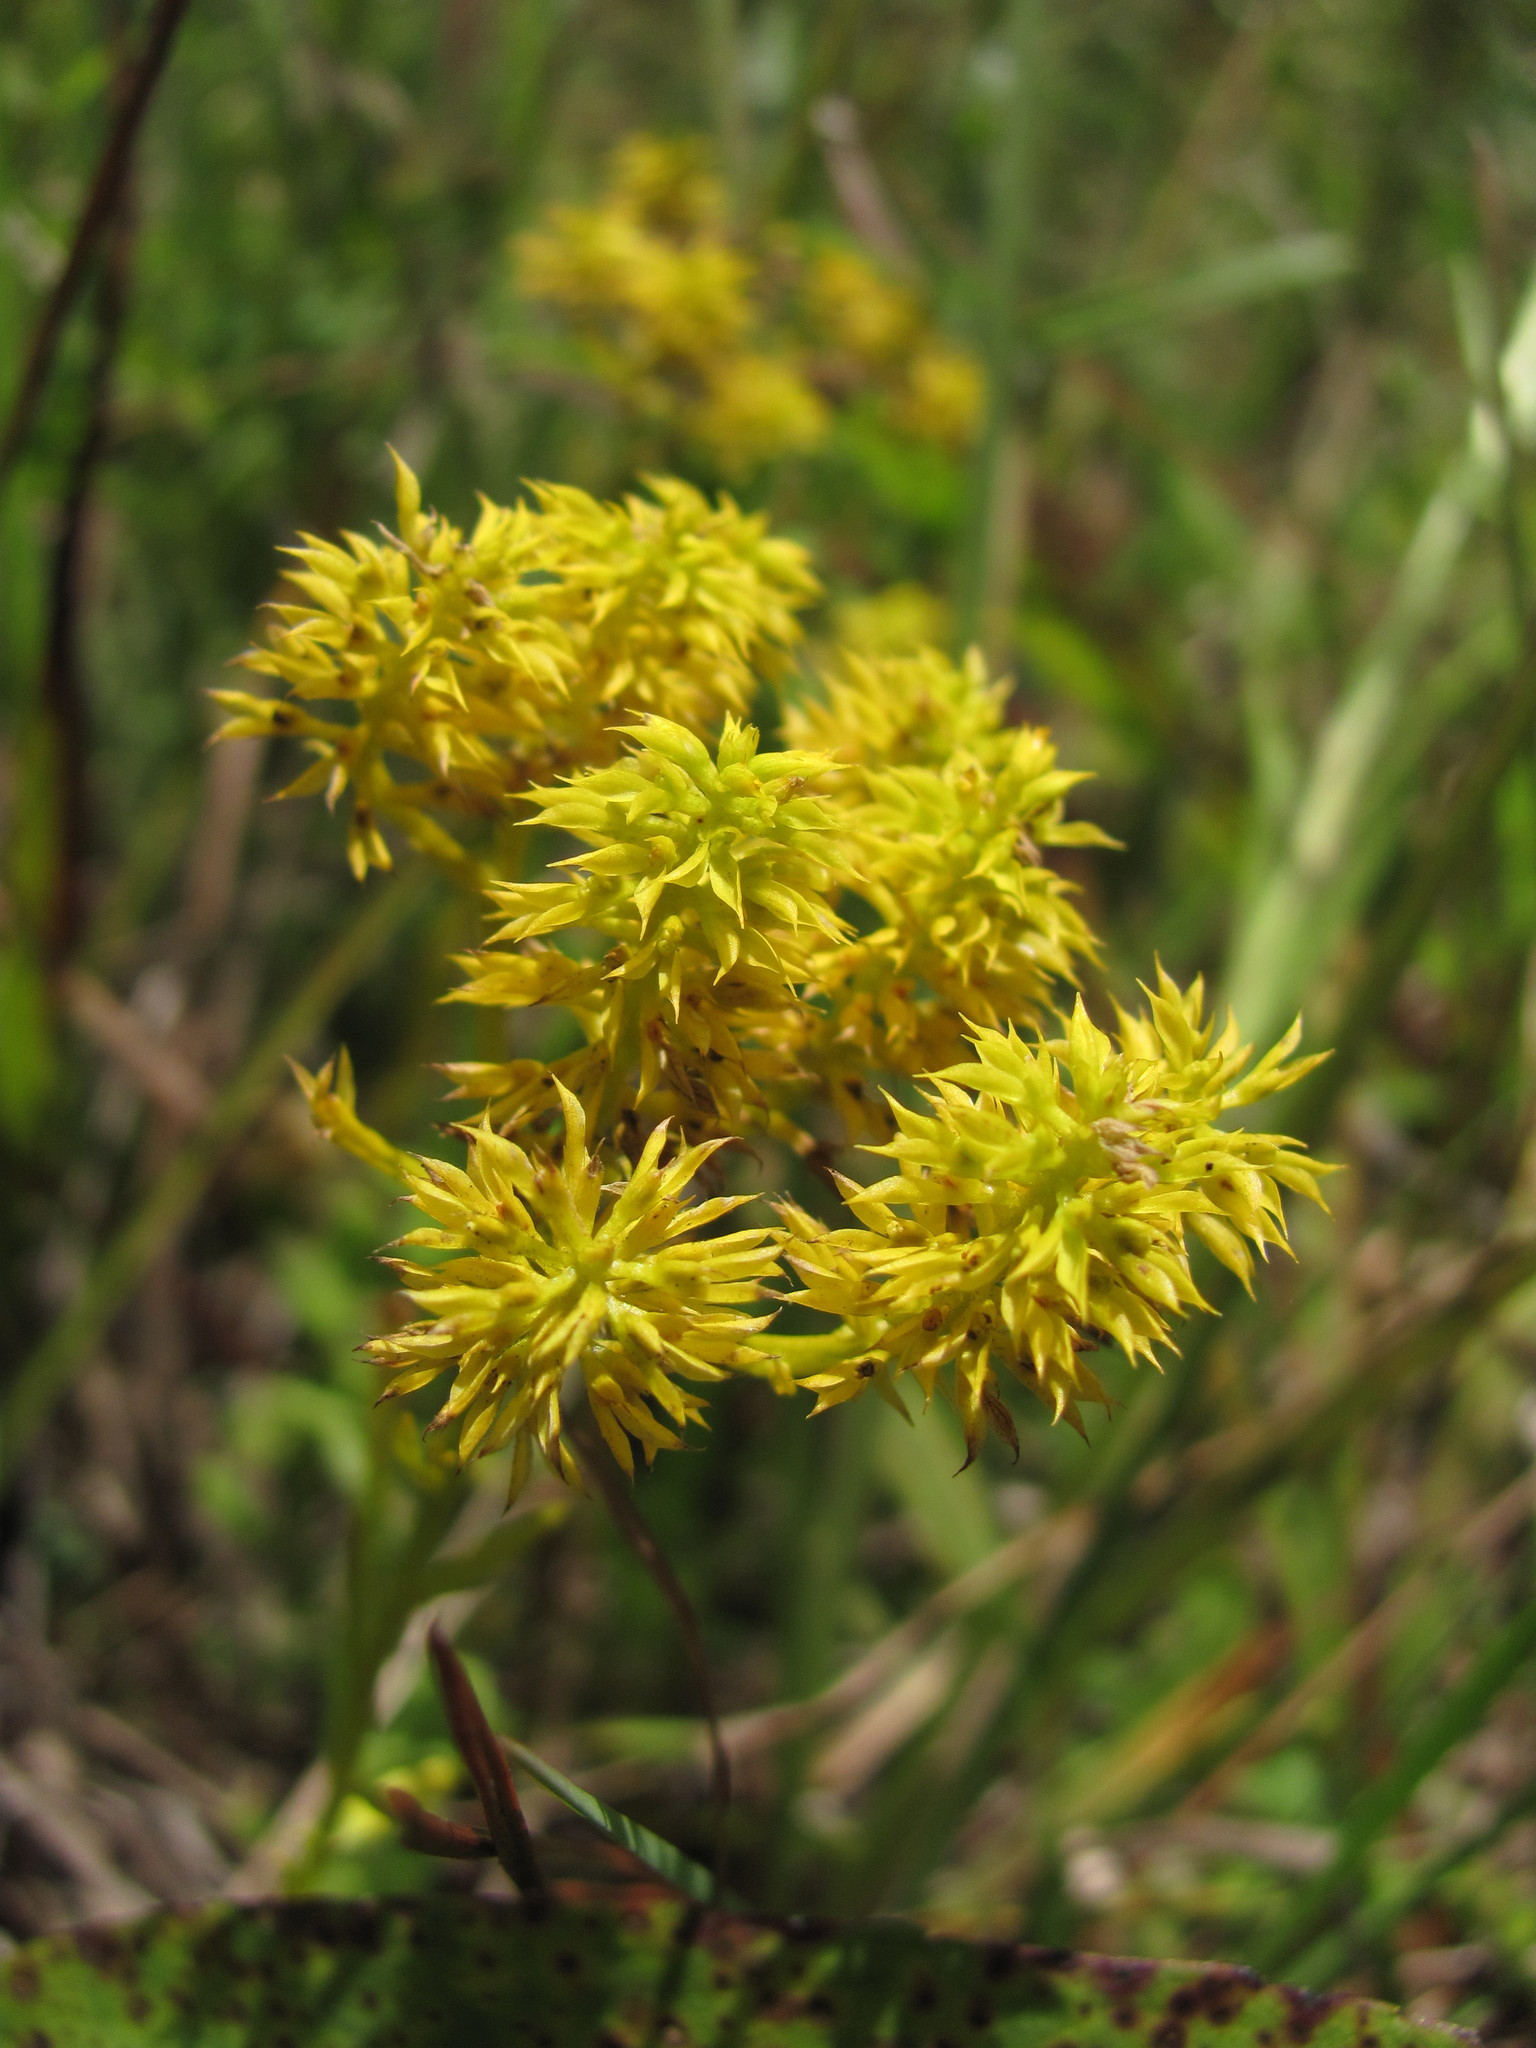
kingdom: Plantae
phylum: Tracheophyta
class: Magnoliopsida
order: Fabales
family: Polygalaceae
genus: Polygala
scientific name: Polygala ramosa
